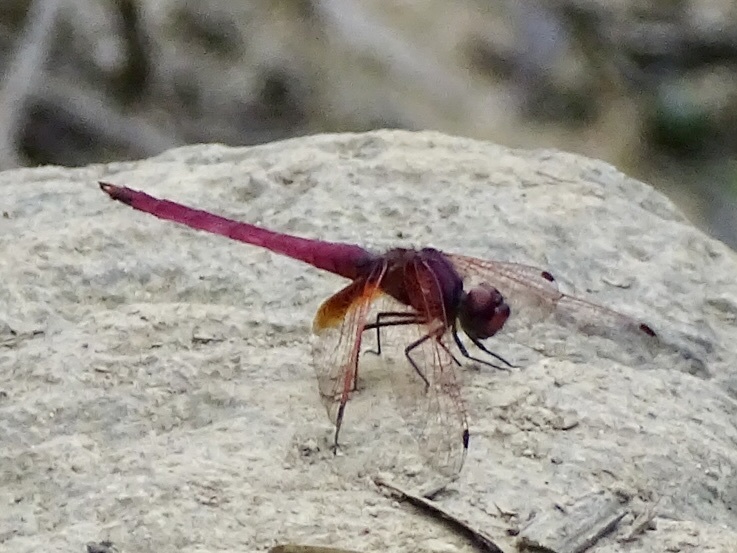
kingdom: Animalia
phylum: Arthropoda
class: Insecta
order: Odonata
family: Libellulidae
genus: Trithemis
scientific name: Trithemis aurora
